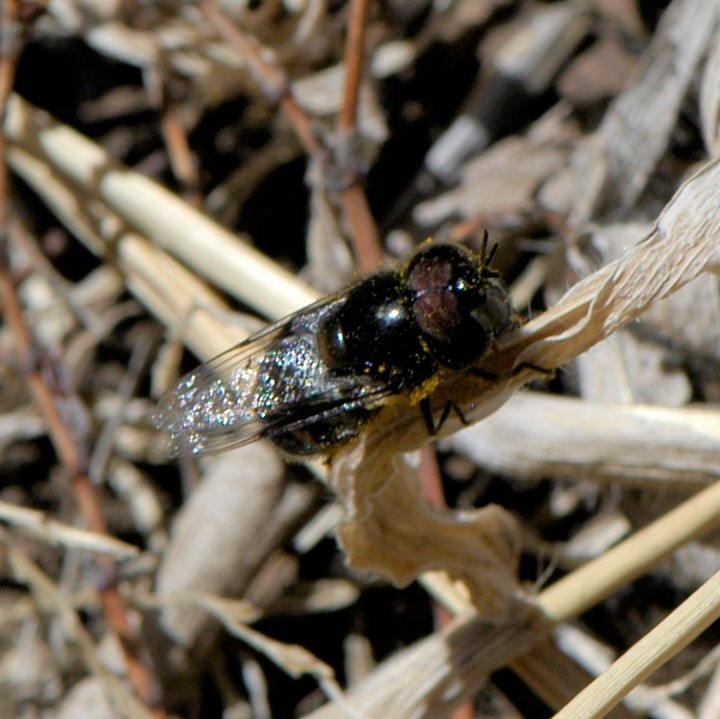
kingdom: Animalia
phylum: Arthropoda
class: Insecta
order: Diptera
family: Syrphidae
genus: Copestylum
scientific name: Copestylum
